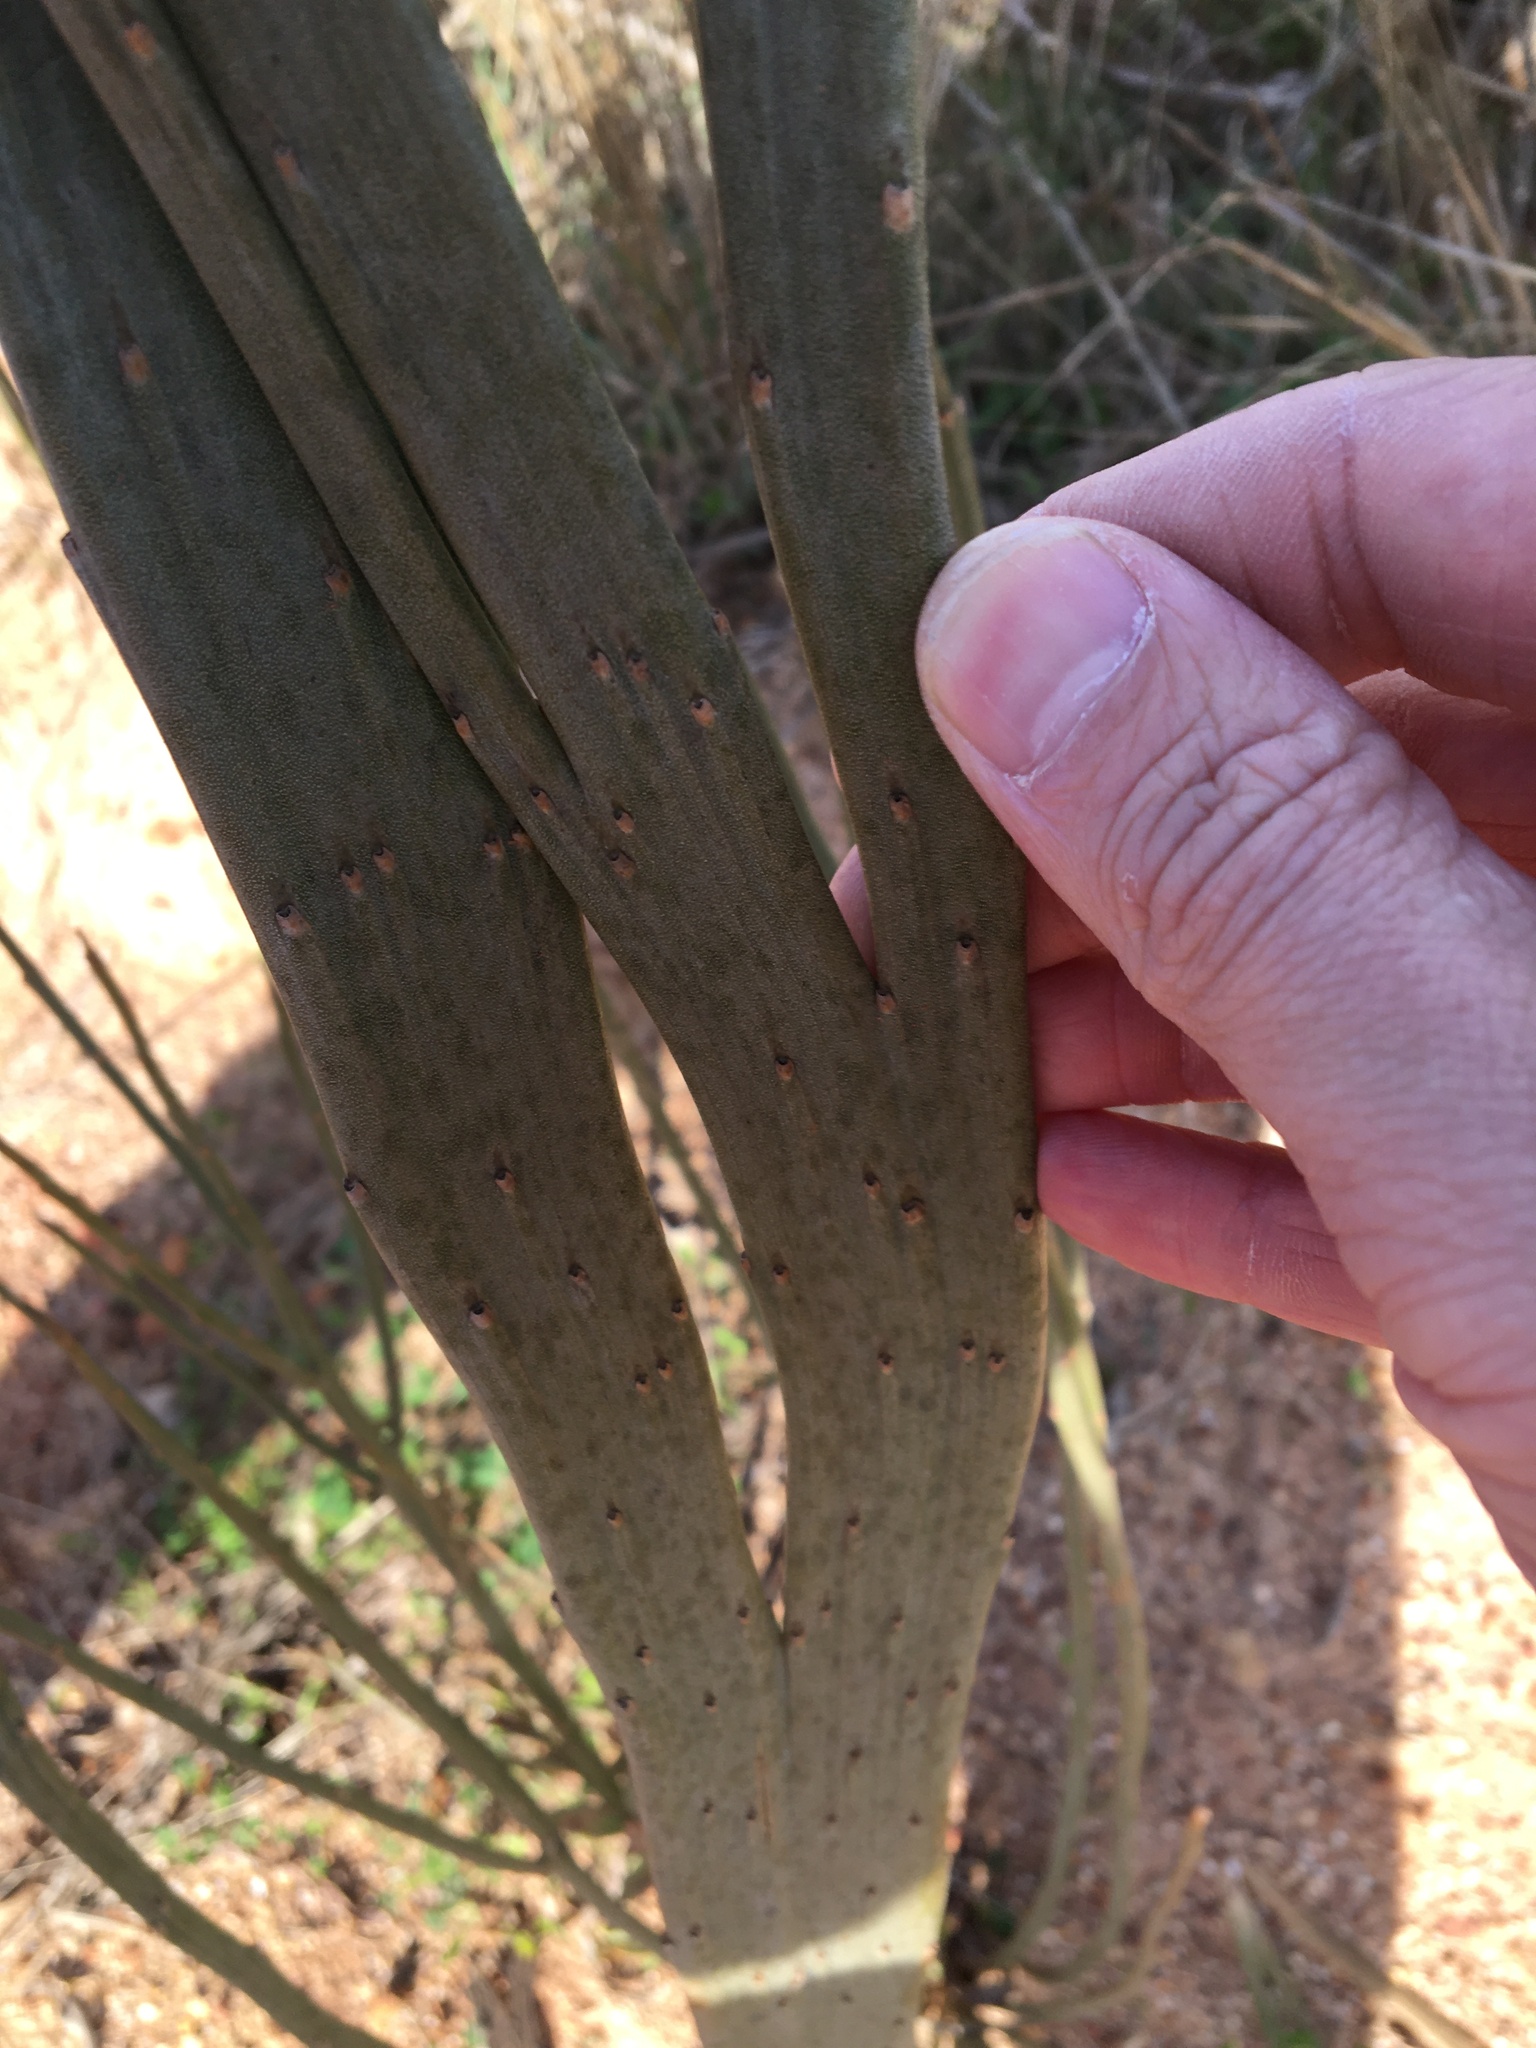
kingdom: Plantae
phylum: Tracheophyta
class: Magnoliopsida
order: Solanales
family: Montiniaceae
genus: Montinia
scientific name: Montinia caryophyllacea
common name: Wild clove-bush
